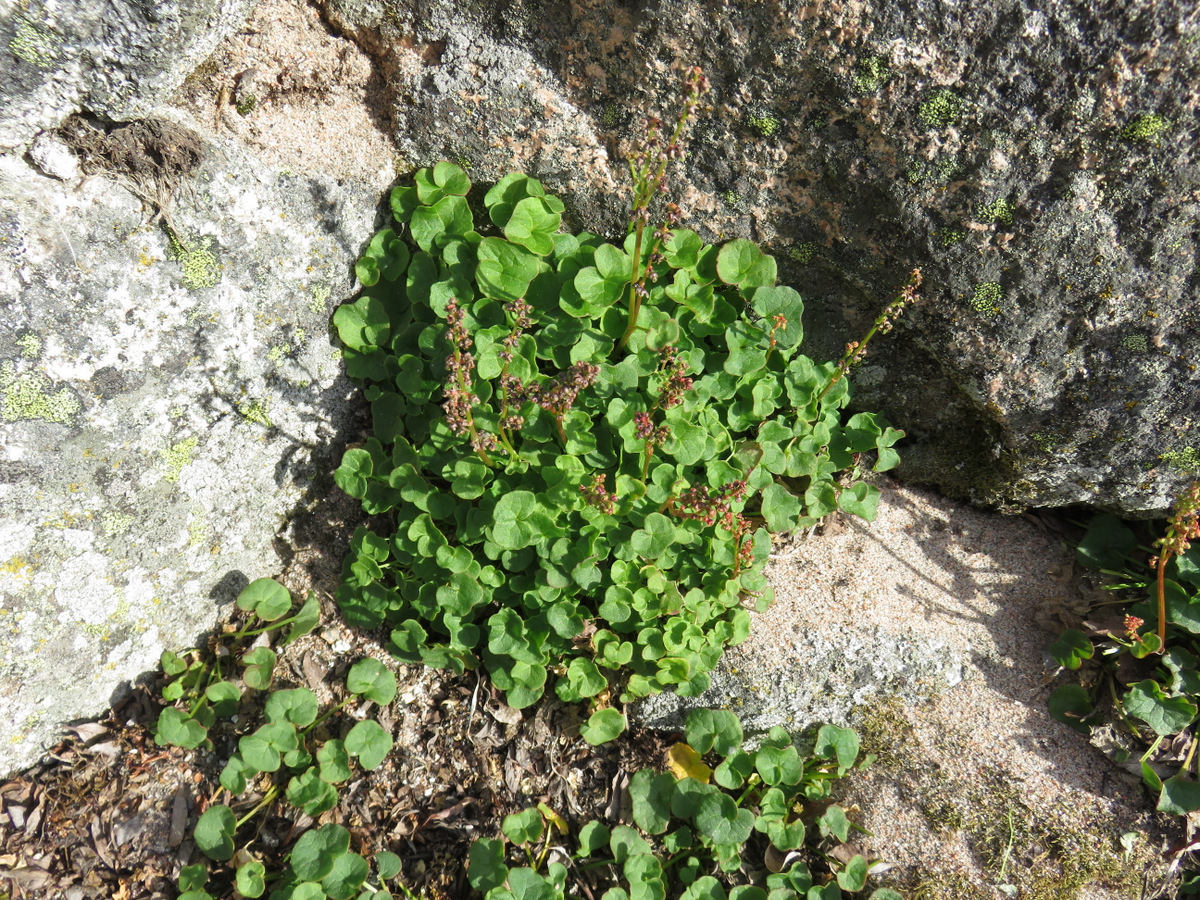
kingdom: Plantae
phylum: Tracheophyta
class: Magnoliopsida
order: Caryophyllales
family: Polygonaceae
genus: Oxyria
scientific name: Oxyria digyna
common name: Alpine mountain-sorrel
